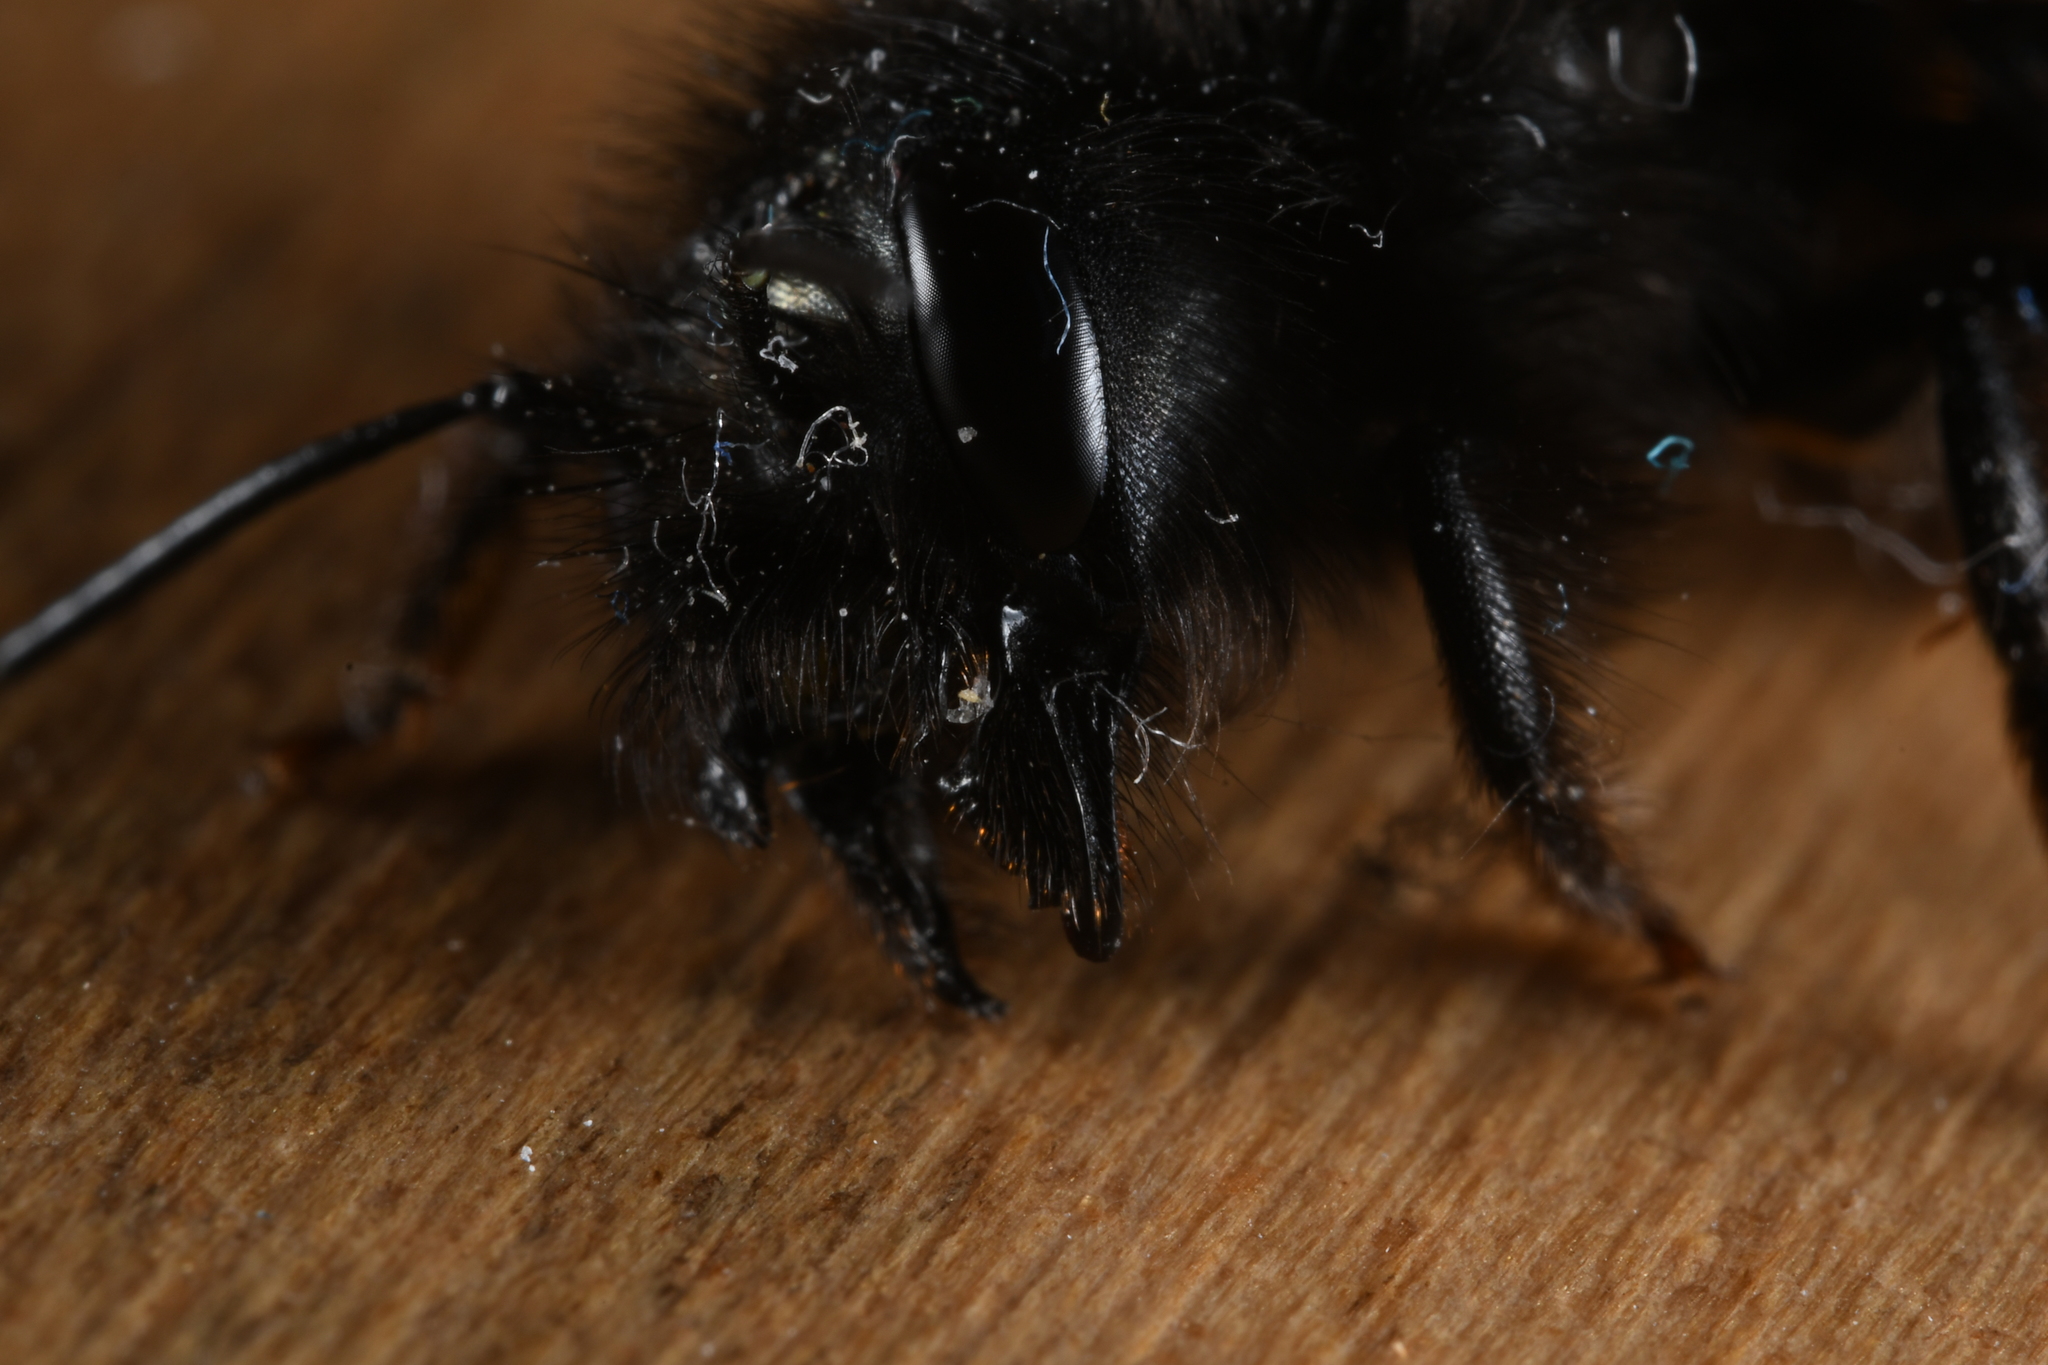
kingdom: Animalia
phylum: Arthropoda
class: Insecta
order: Hymenoptera
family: Megachilidae
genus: Osmia
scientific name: Osmia cornuta
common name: Mason bee
